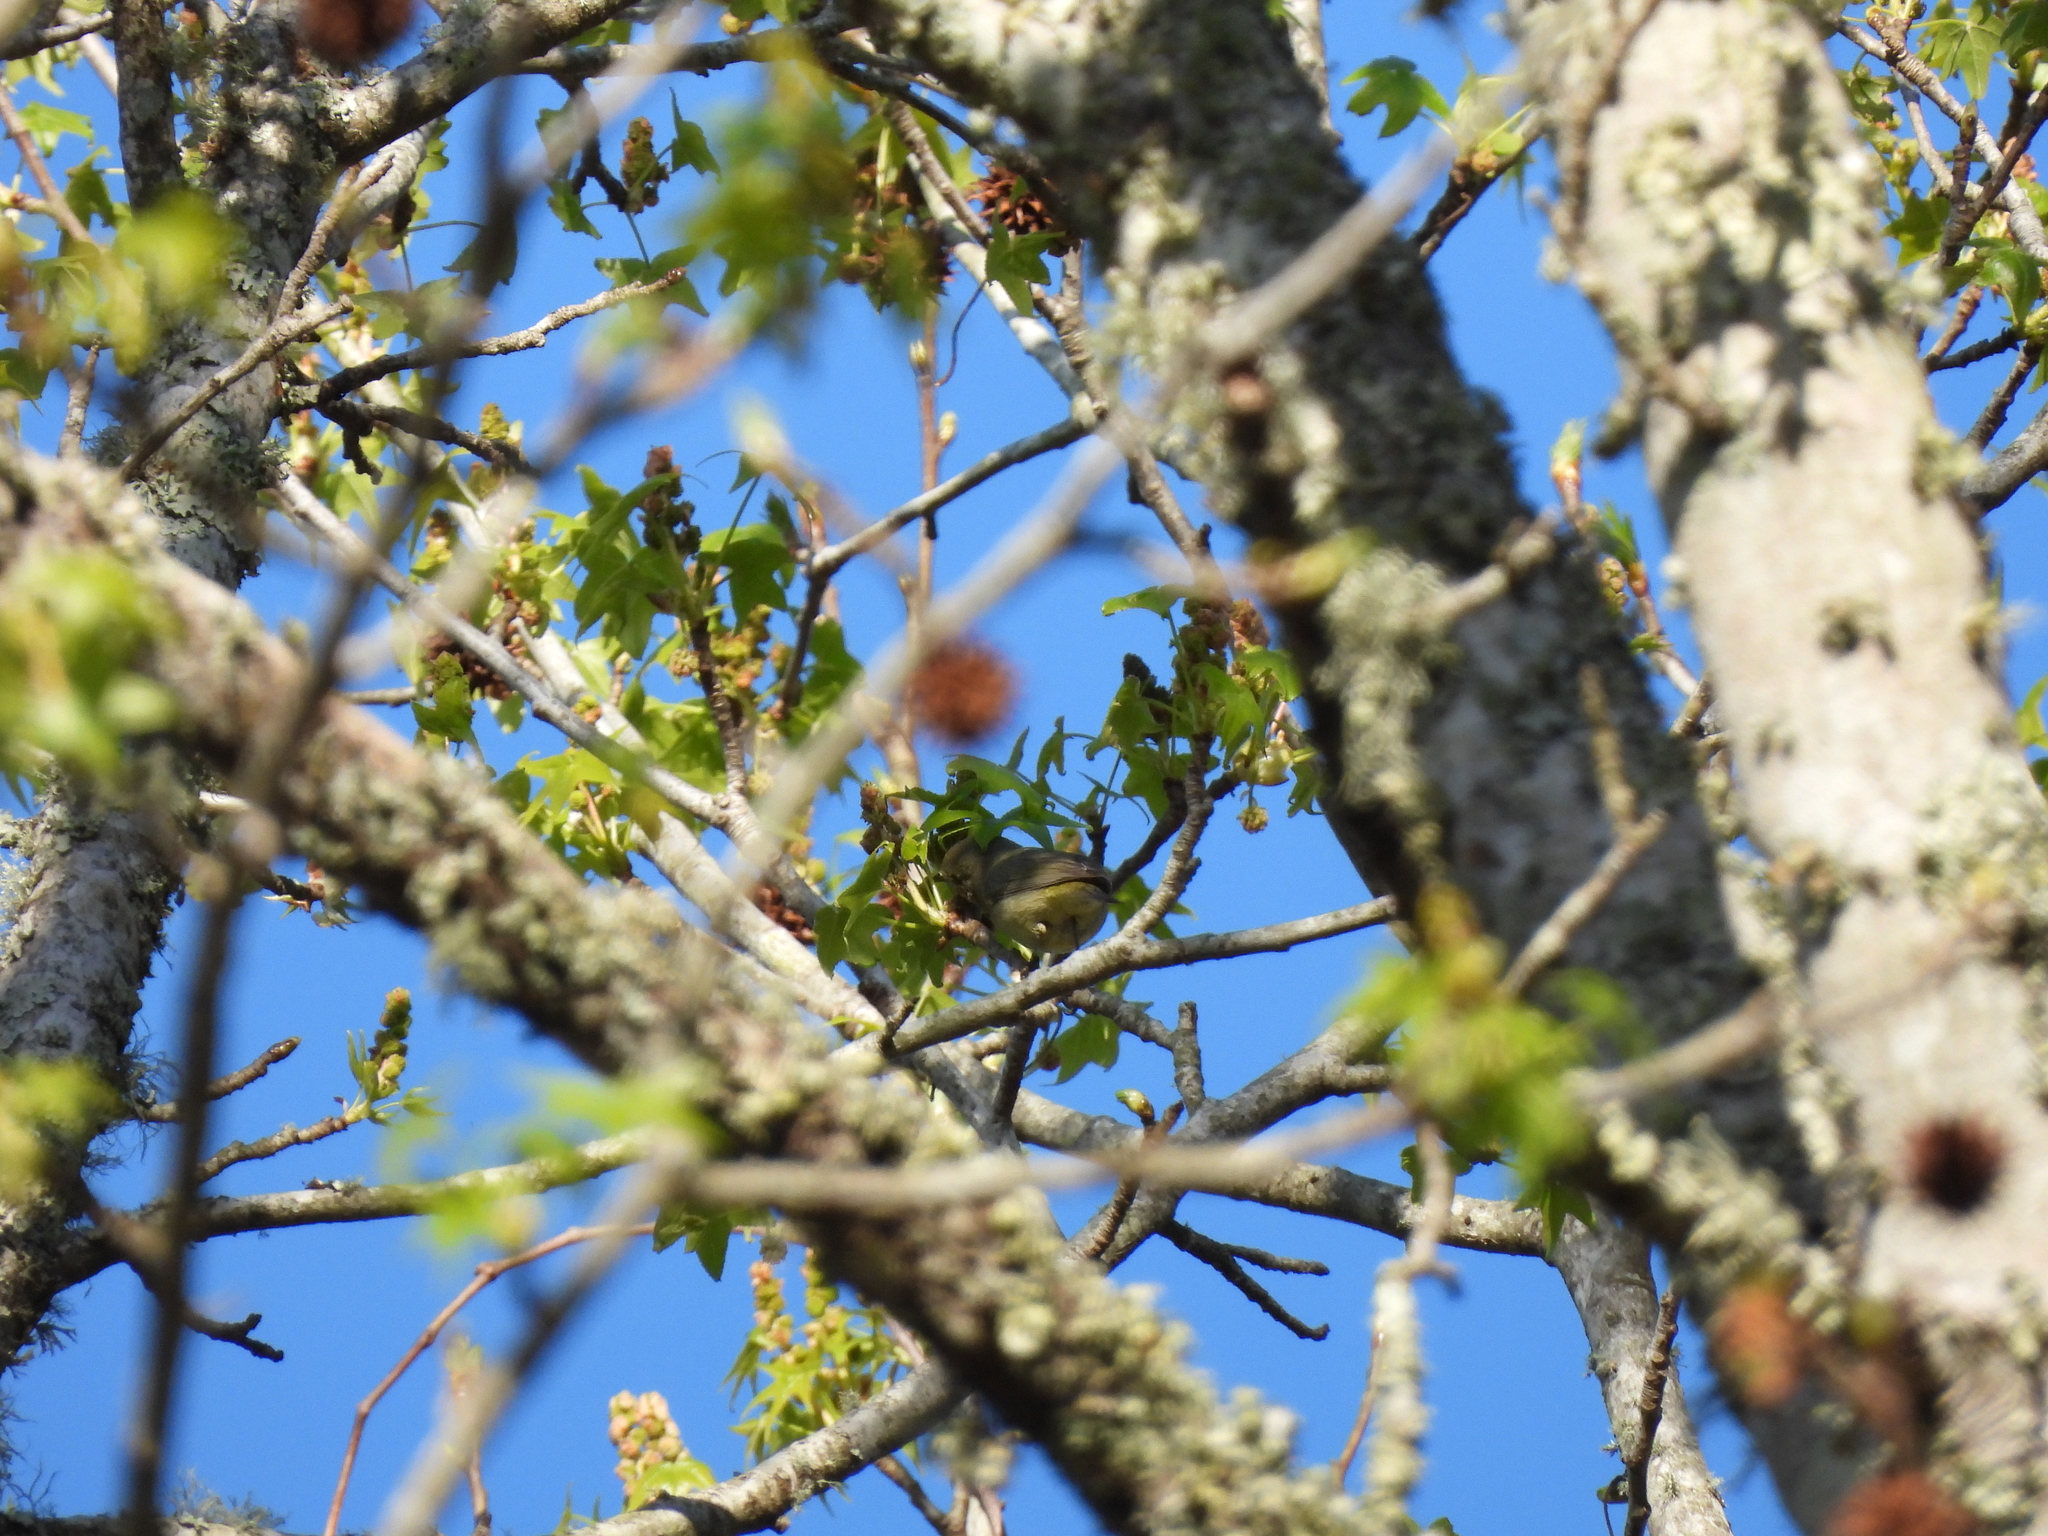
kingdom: Animalia
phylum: Chordata
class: Aves
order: Passeriformes
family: Parulidae
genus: Leiothlypis
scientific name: Leiothlypis celata
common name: Orange-crowned warbler
